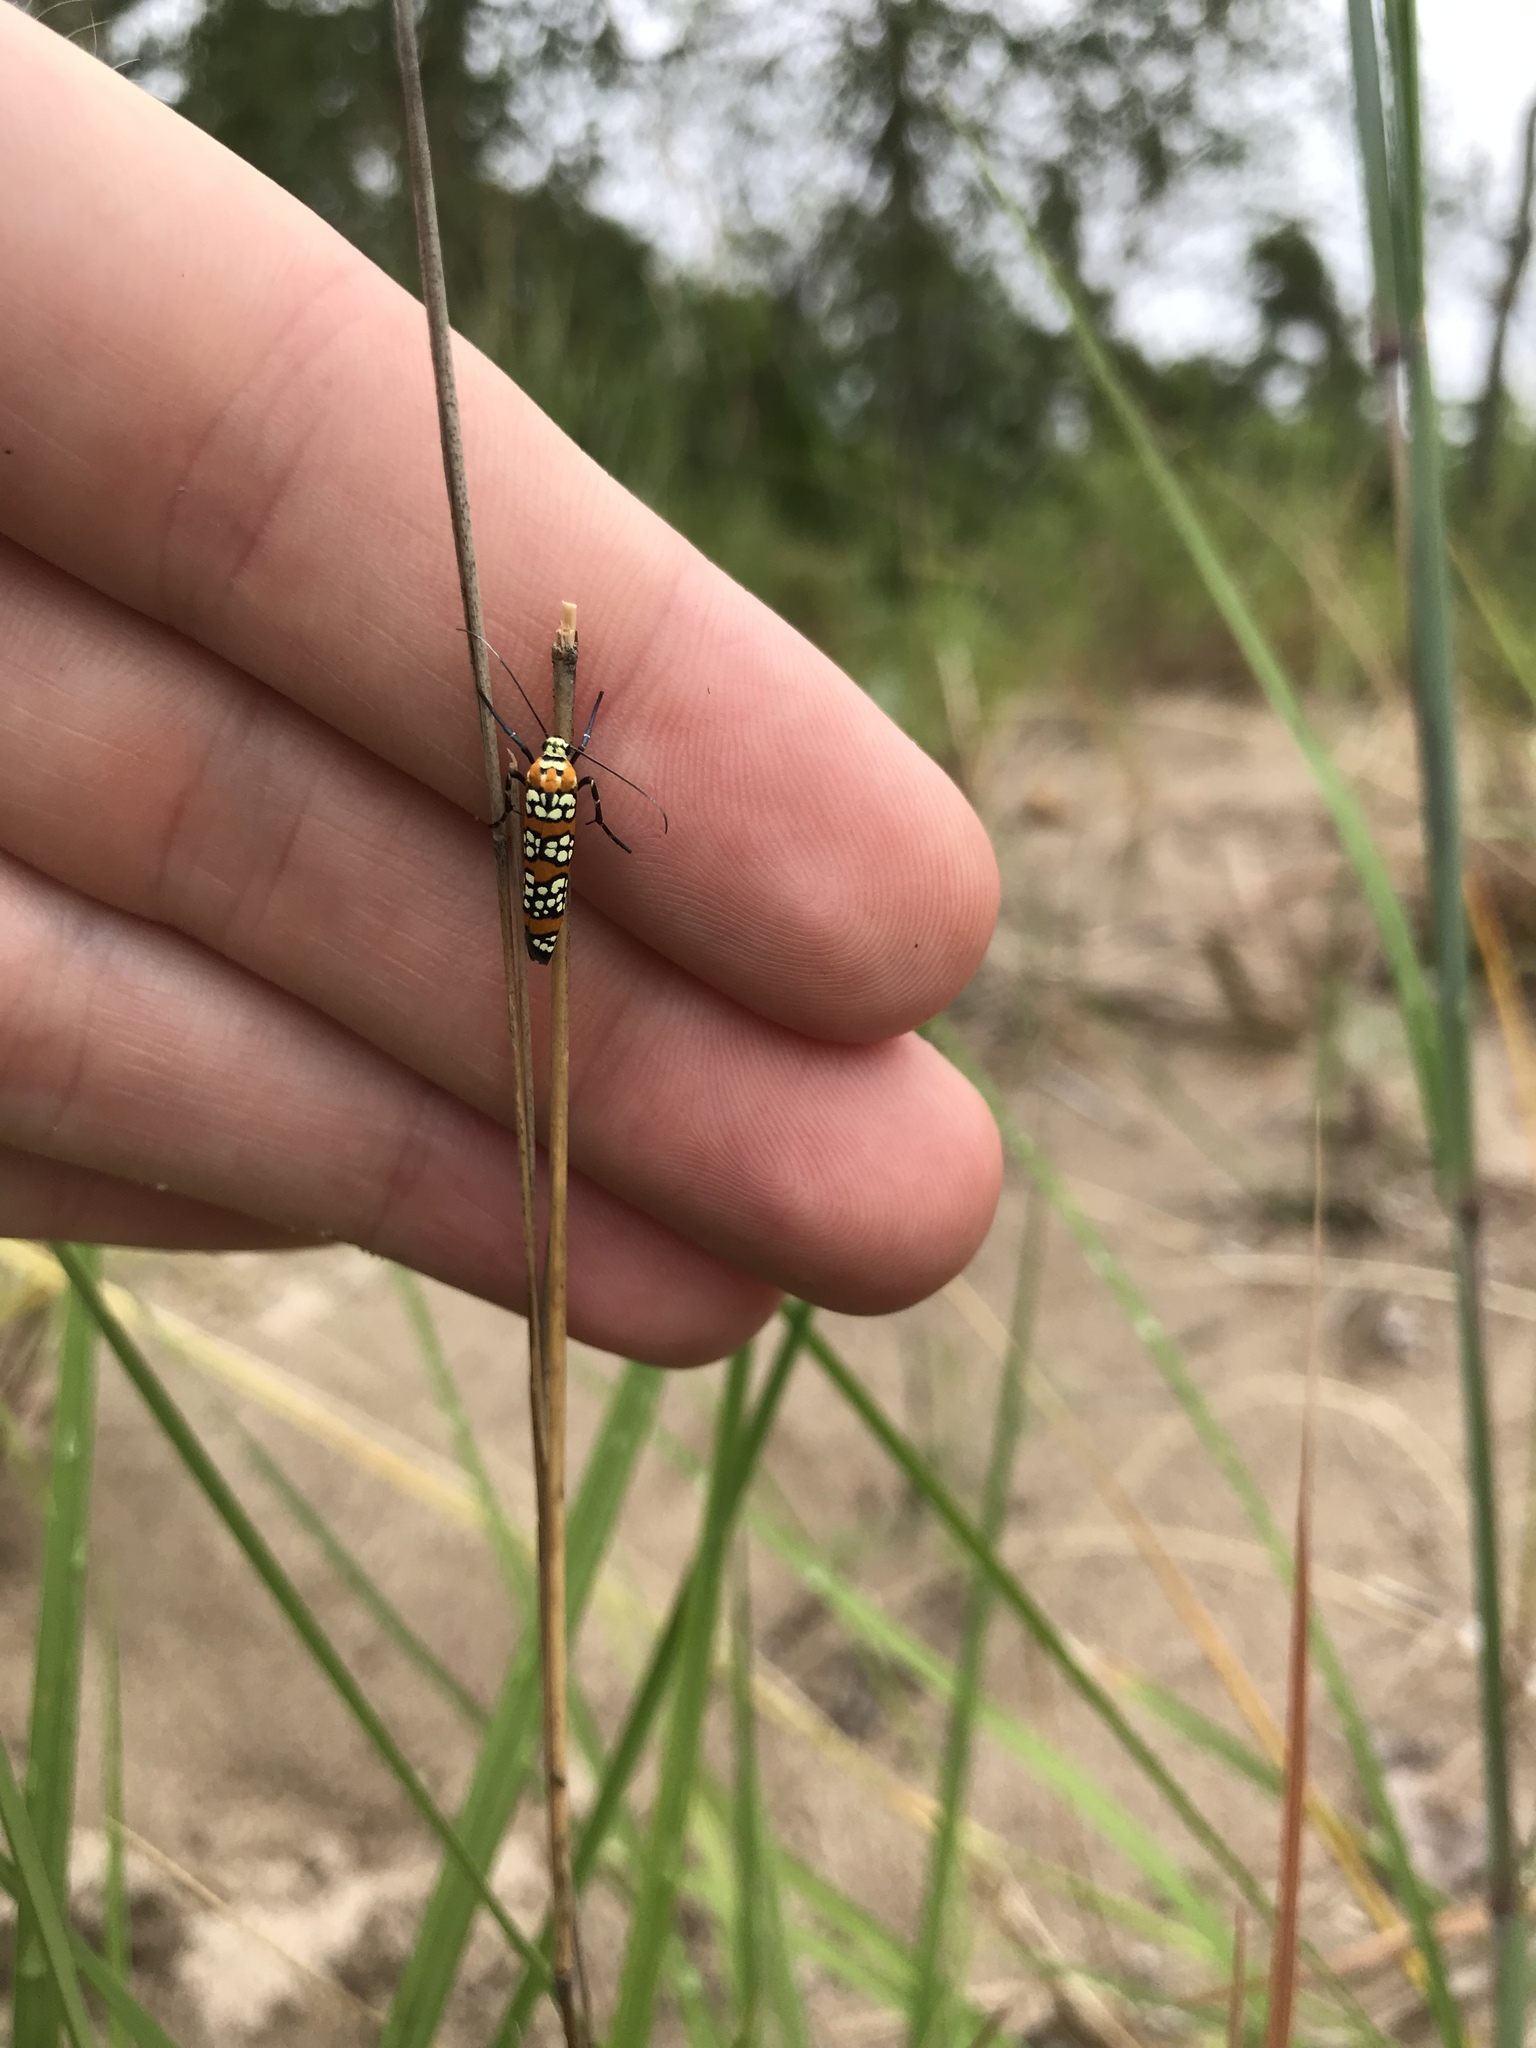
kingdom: Animalia
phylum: Arthropoda
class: Insecta
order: Lepidoptera
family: Attevidae
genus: Atteva
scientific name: Atteva punctella
